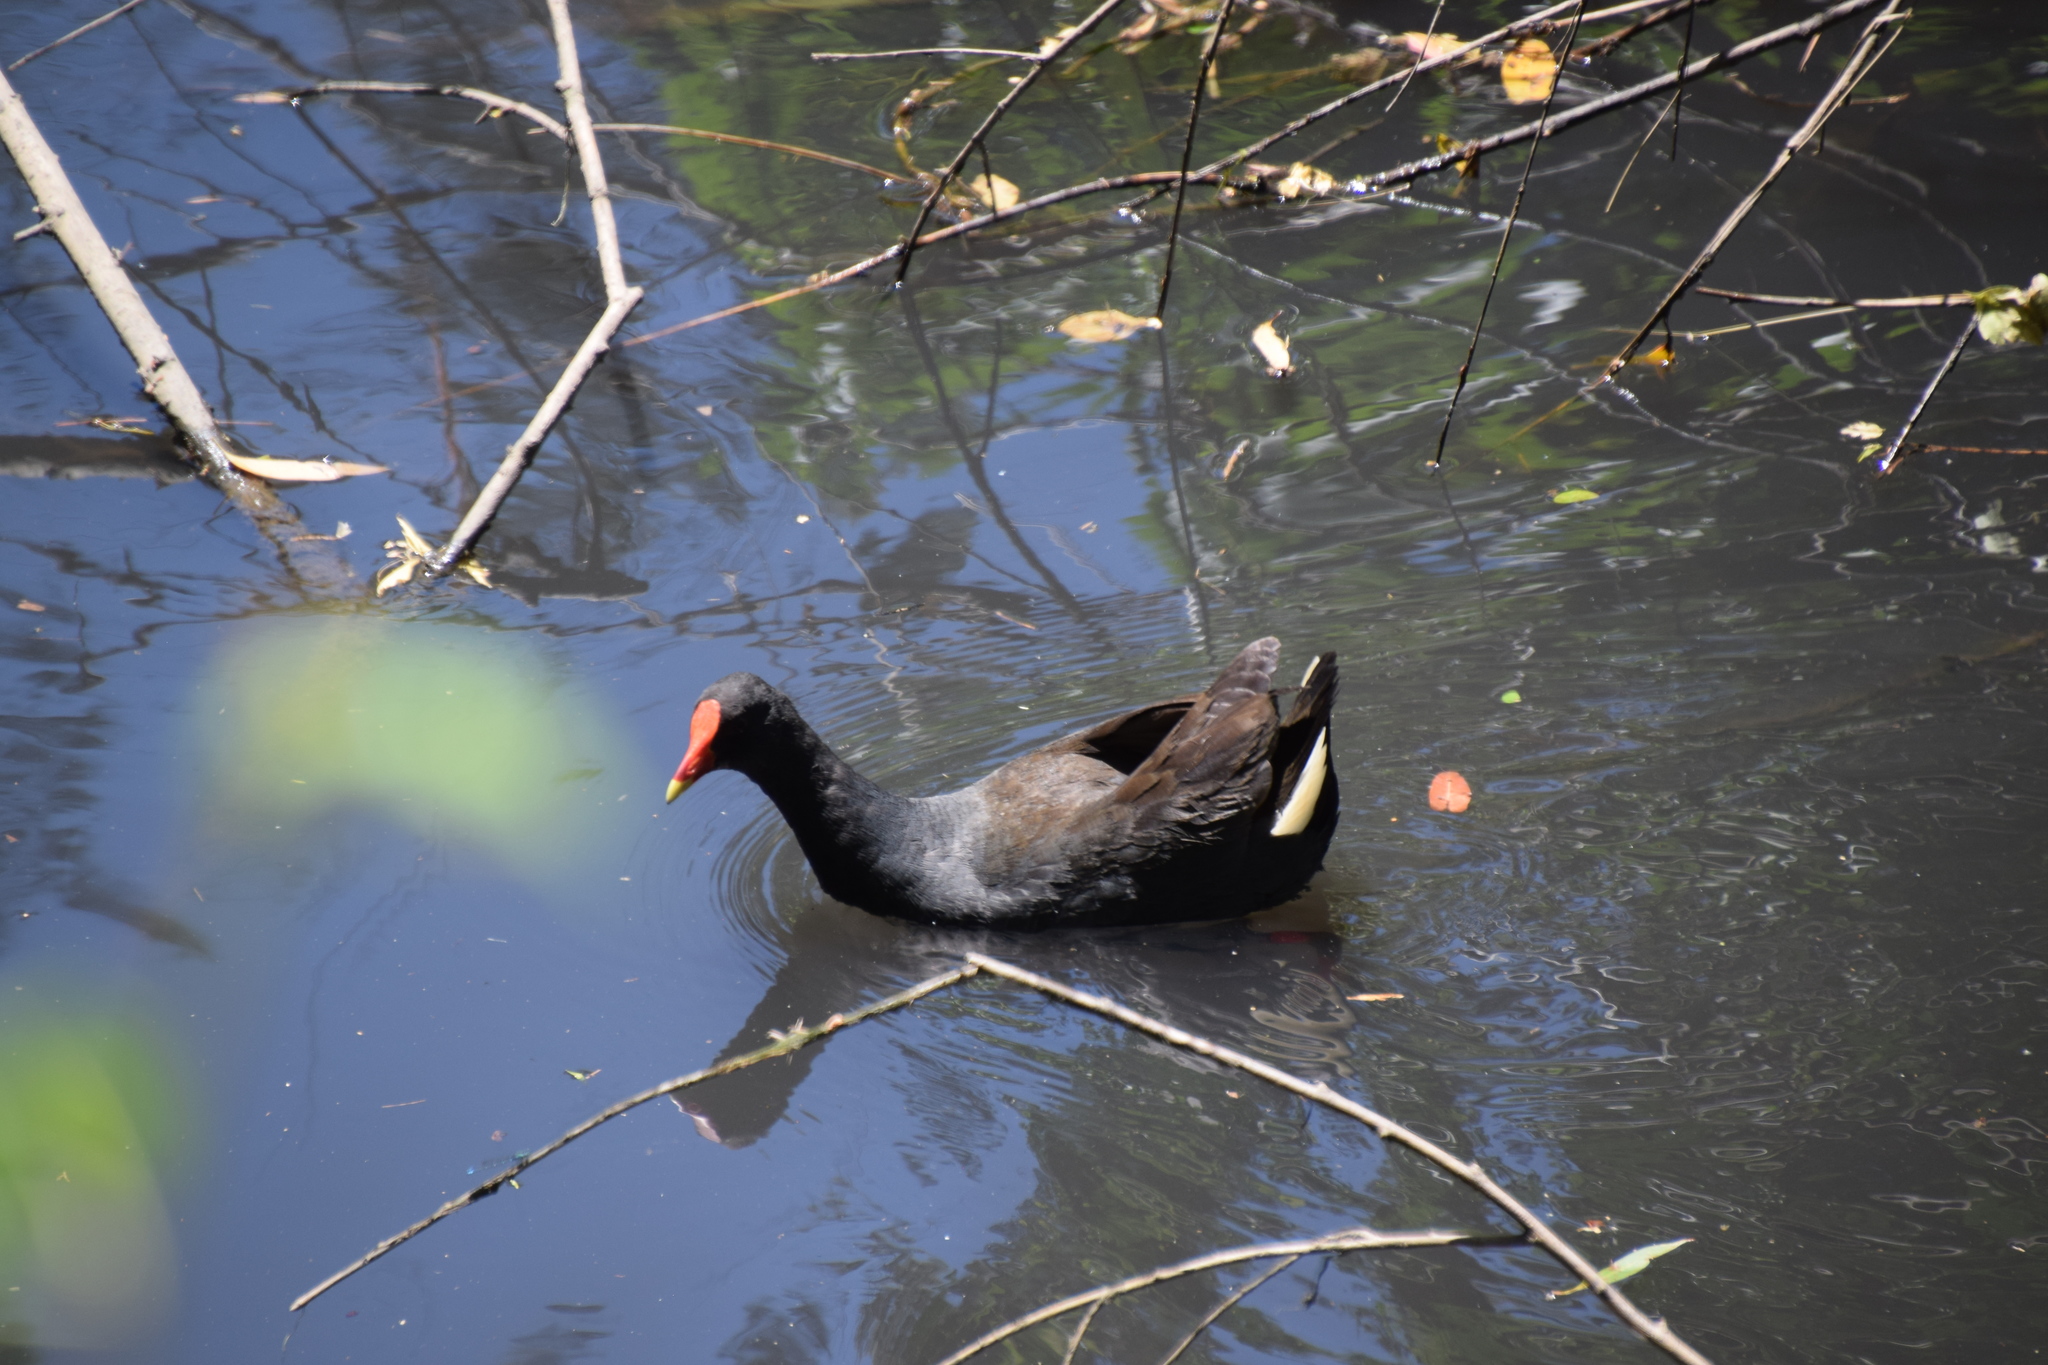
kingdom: Animalia
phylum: Chordata
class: Aves
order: Gruiformes
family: Rallidae
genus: Gallinula
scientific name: Gallinula tenebrosa
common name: Dusky moorhen
